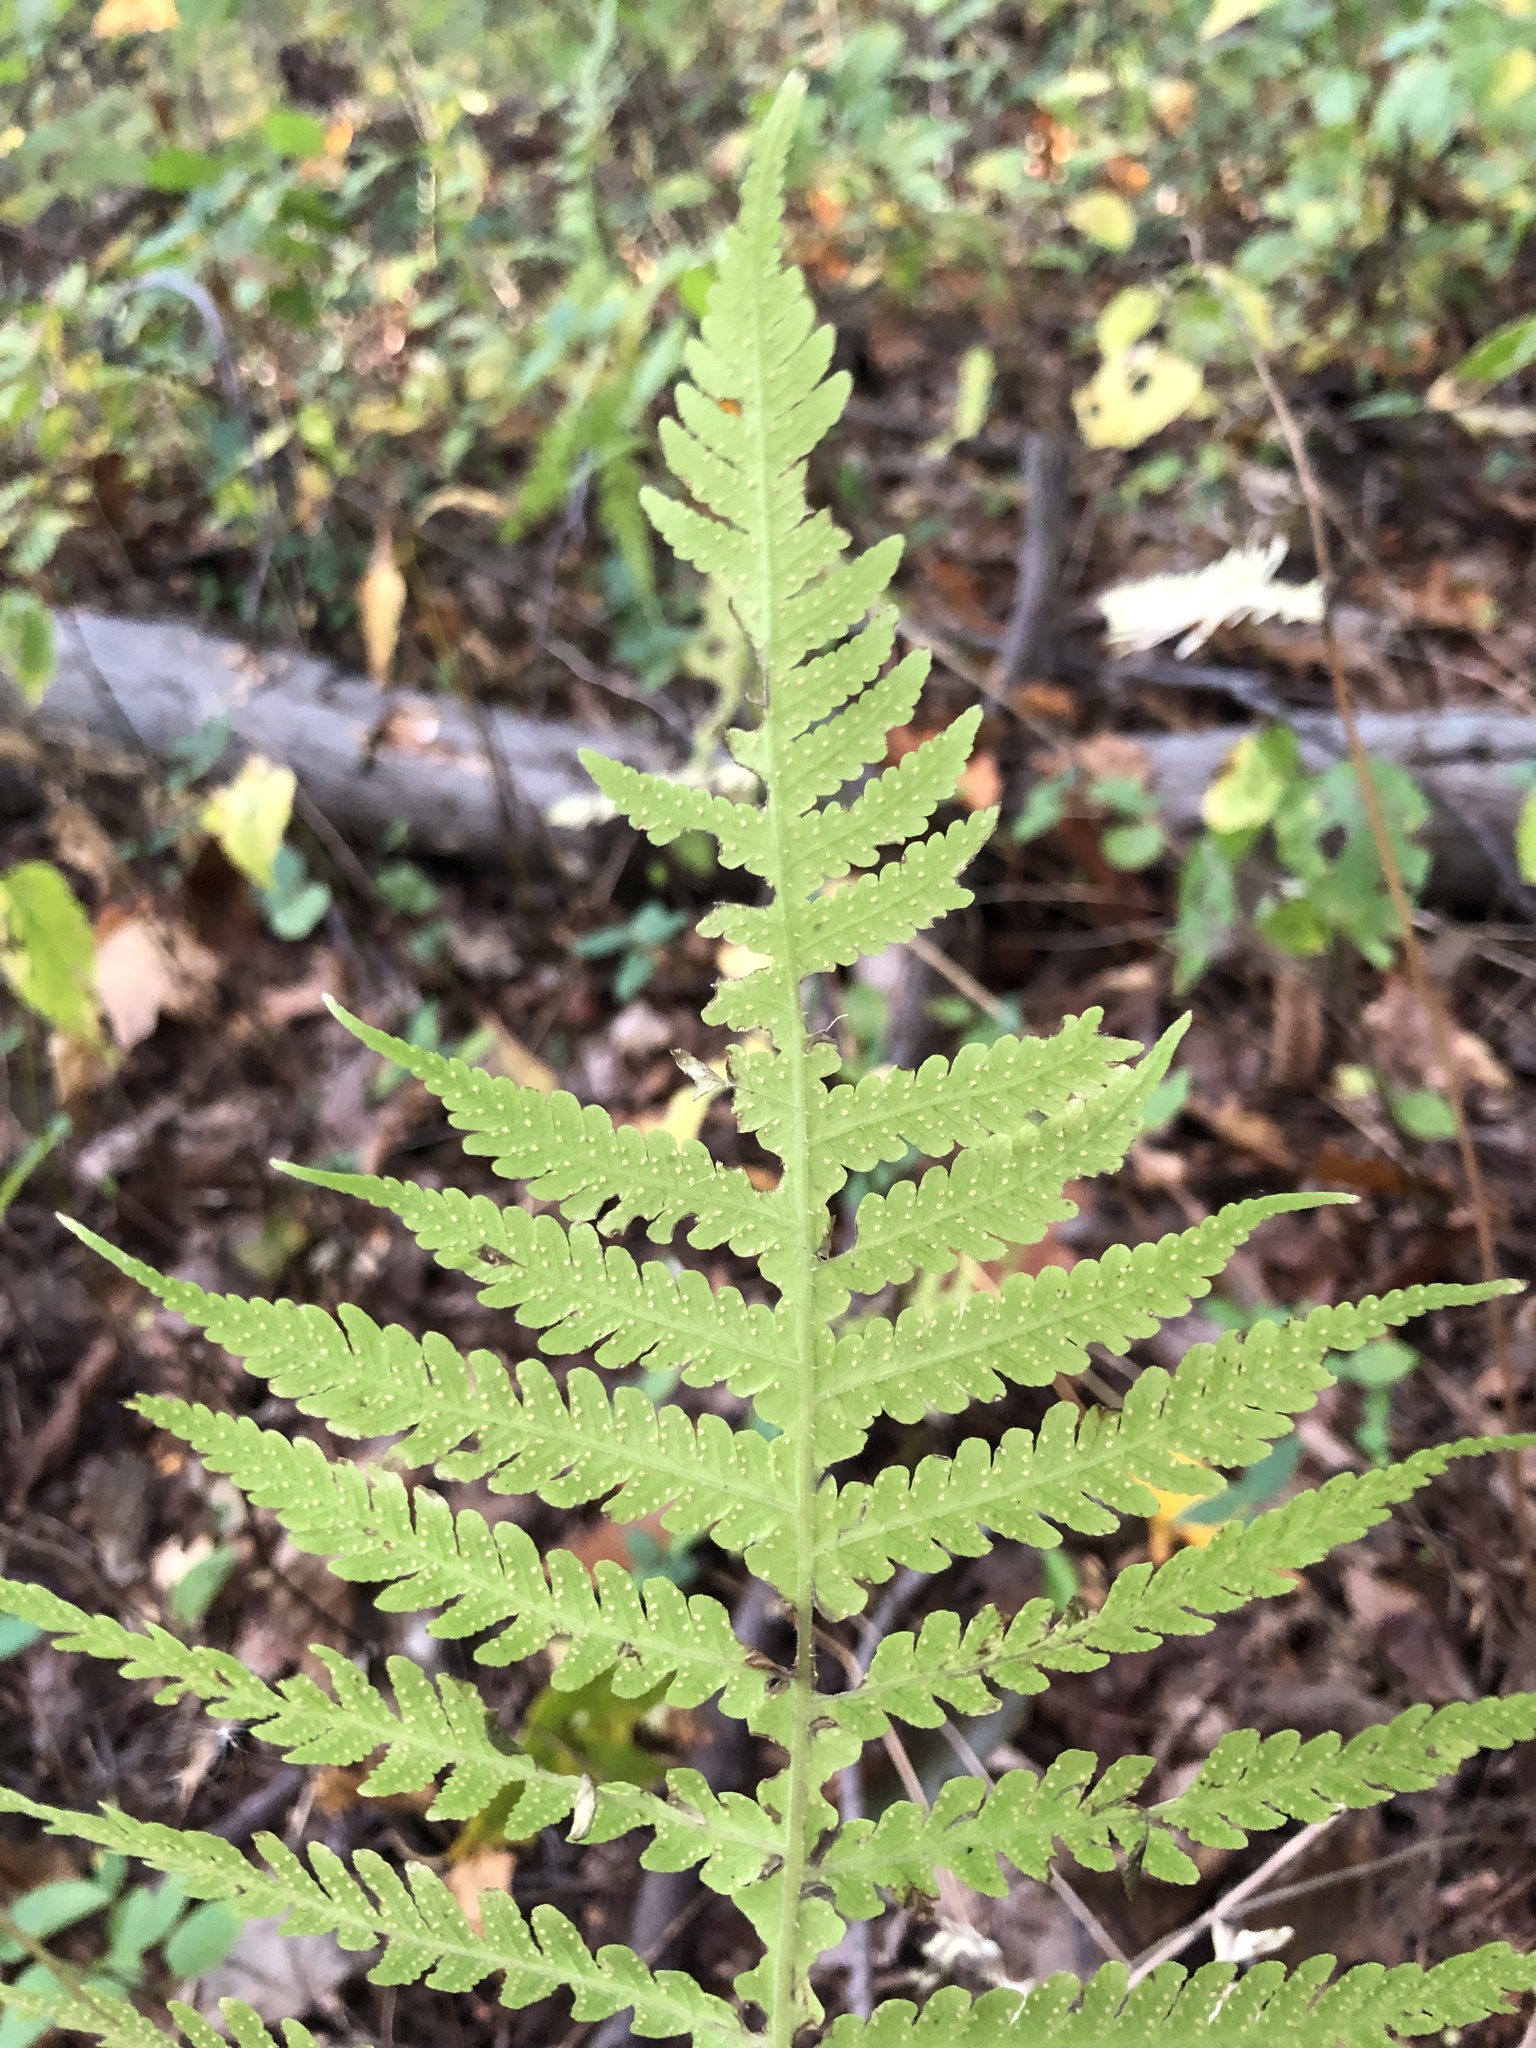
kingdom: Plantae
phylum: Tracheophyta
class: Polypodiopsida
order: Polypodiales
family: Thelypteridaceae
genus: Phegopteris
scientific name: Phegopteris hexagonoptera
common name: Broad beech fern
